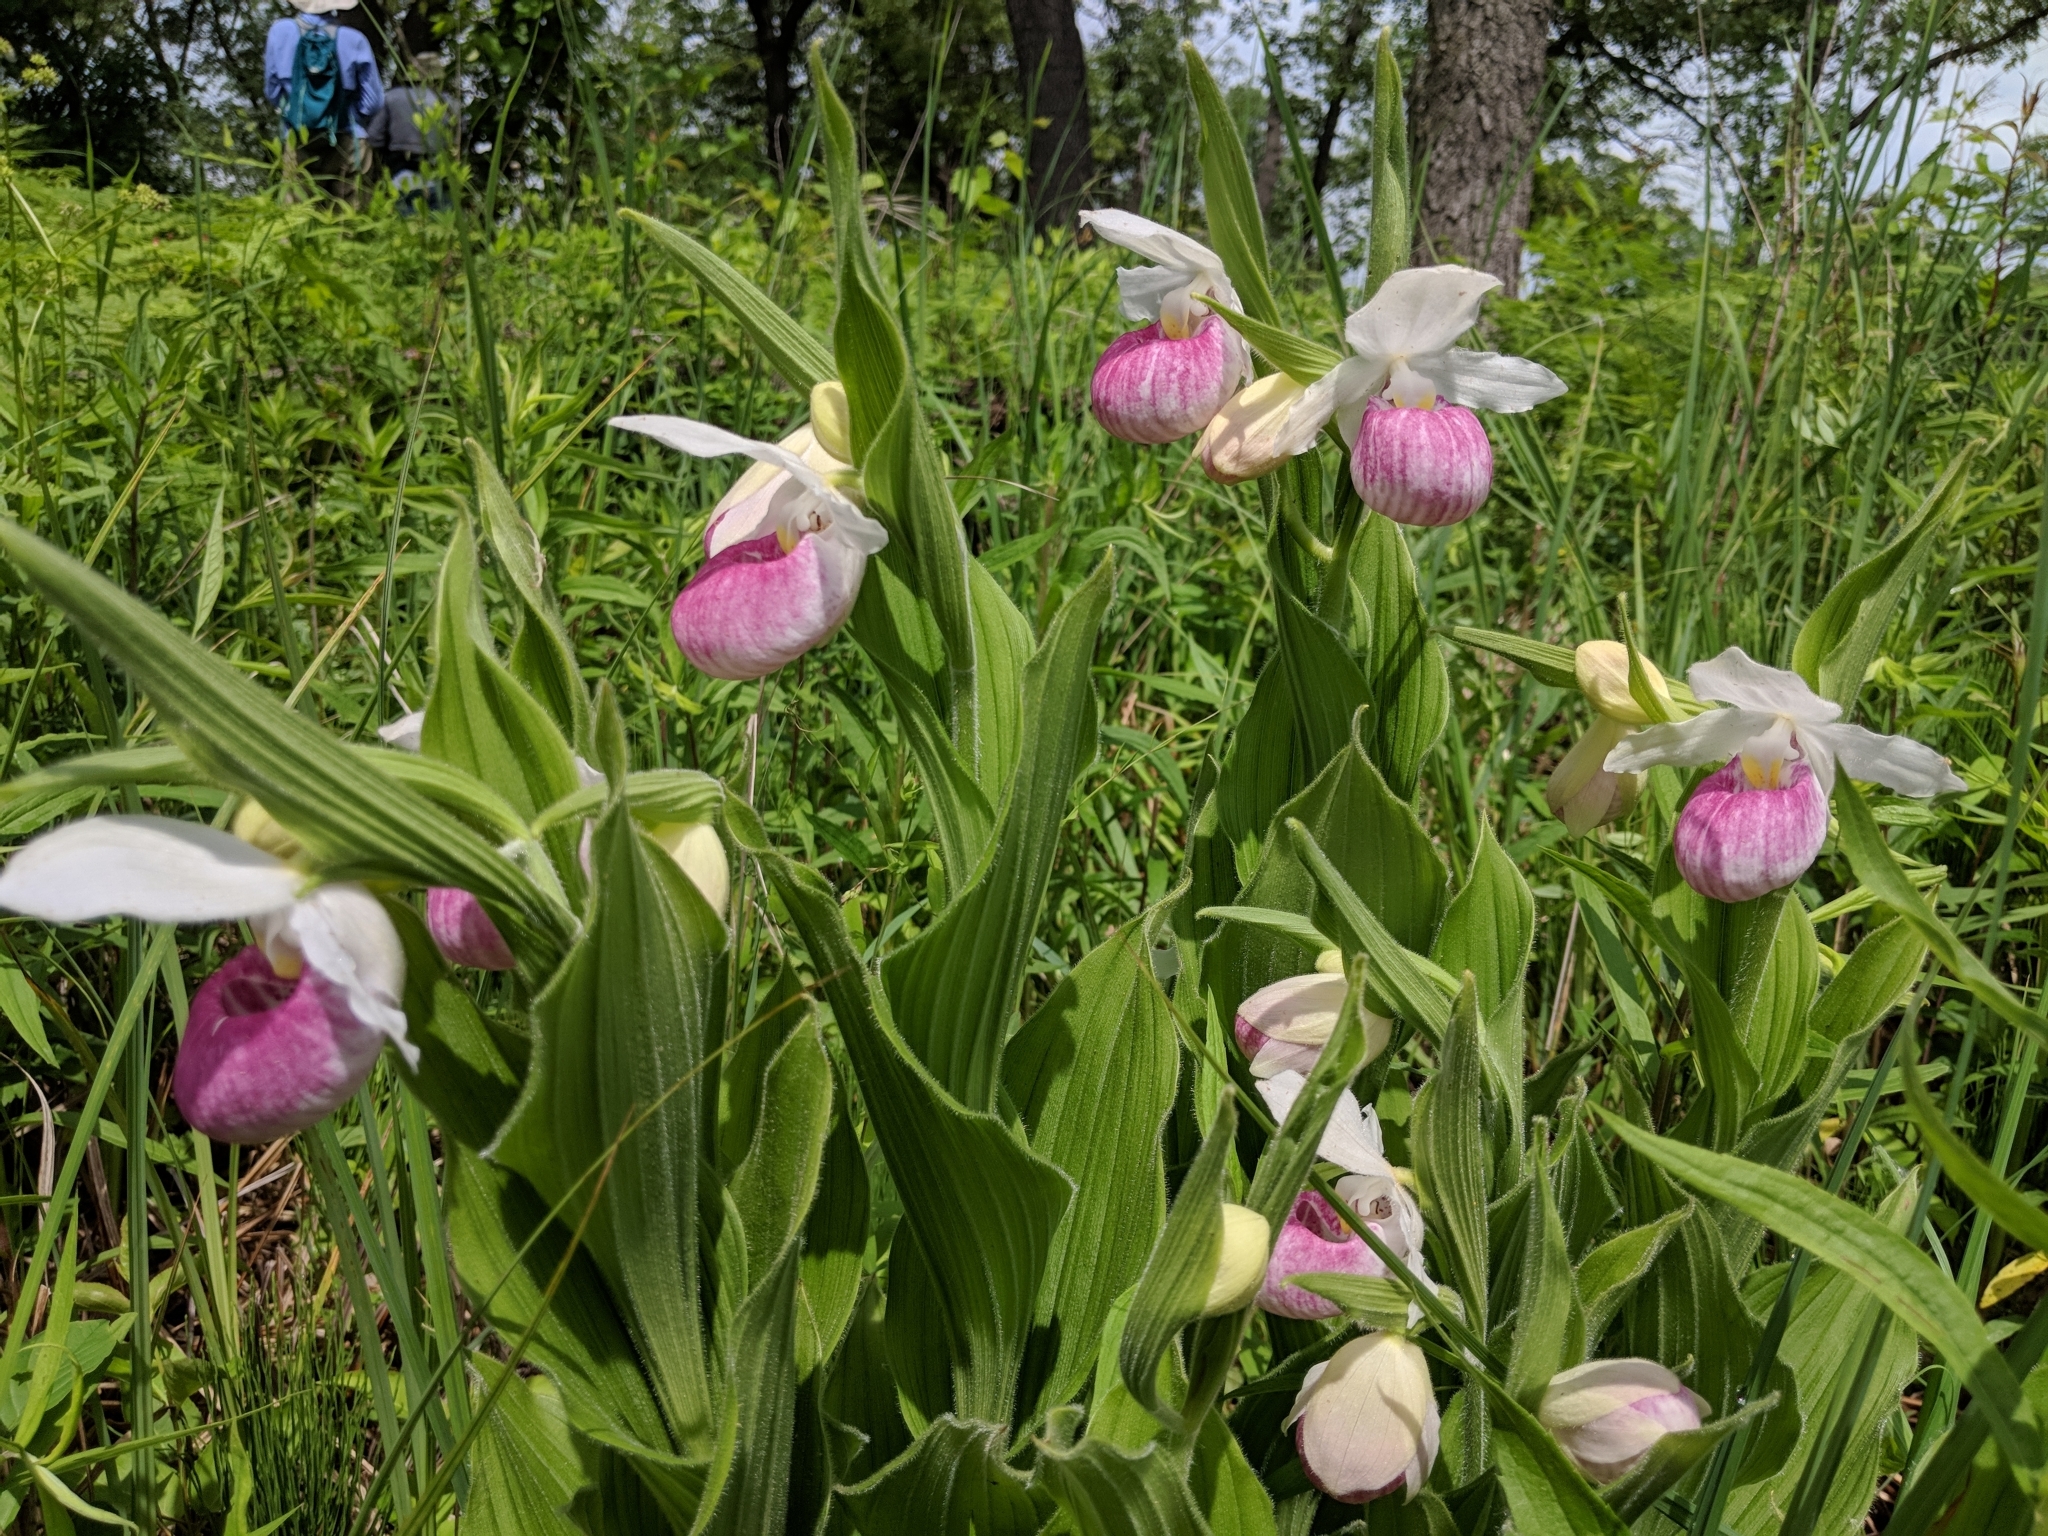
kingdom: Plantae
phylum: Tracheophyta
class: Liliopsida
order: Asparagales
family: Orchidaceae
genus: Cypripedium
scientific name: Cypripedium reginae
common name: Queen lady's-slipper
